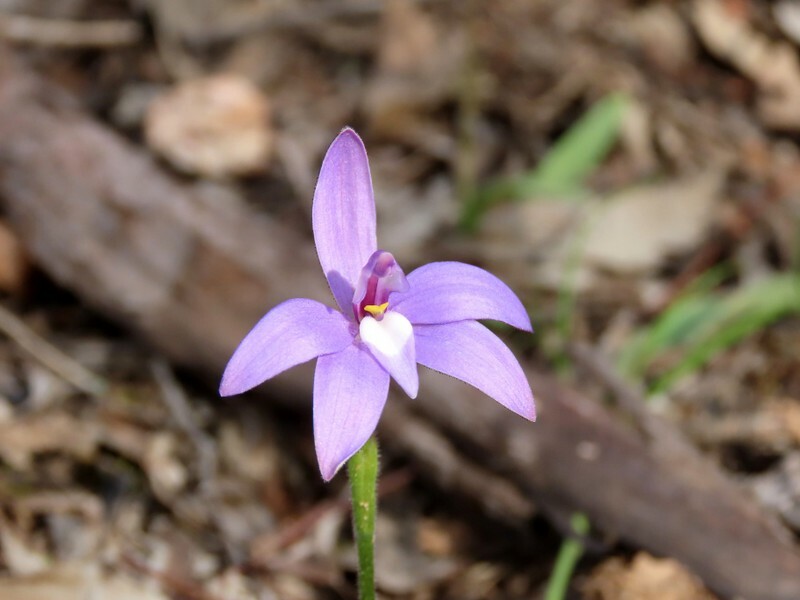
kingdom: Plantae
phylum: Tracheophyta
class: Liliopsida
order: Asparagales
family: Orchidaceae
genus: Caladenia
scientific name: Caladenia major
